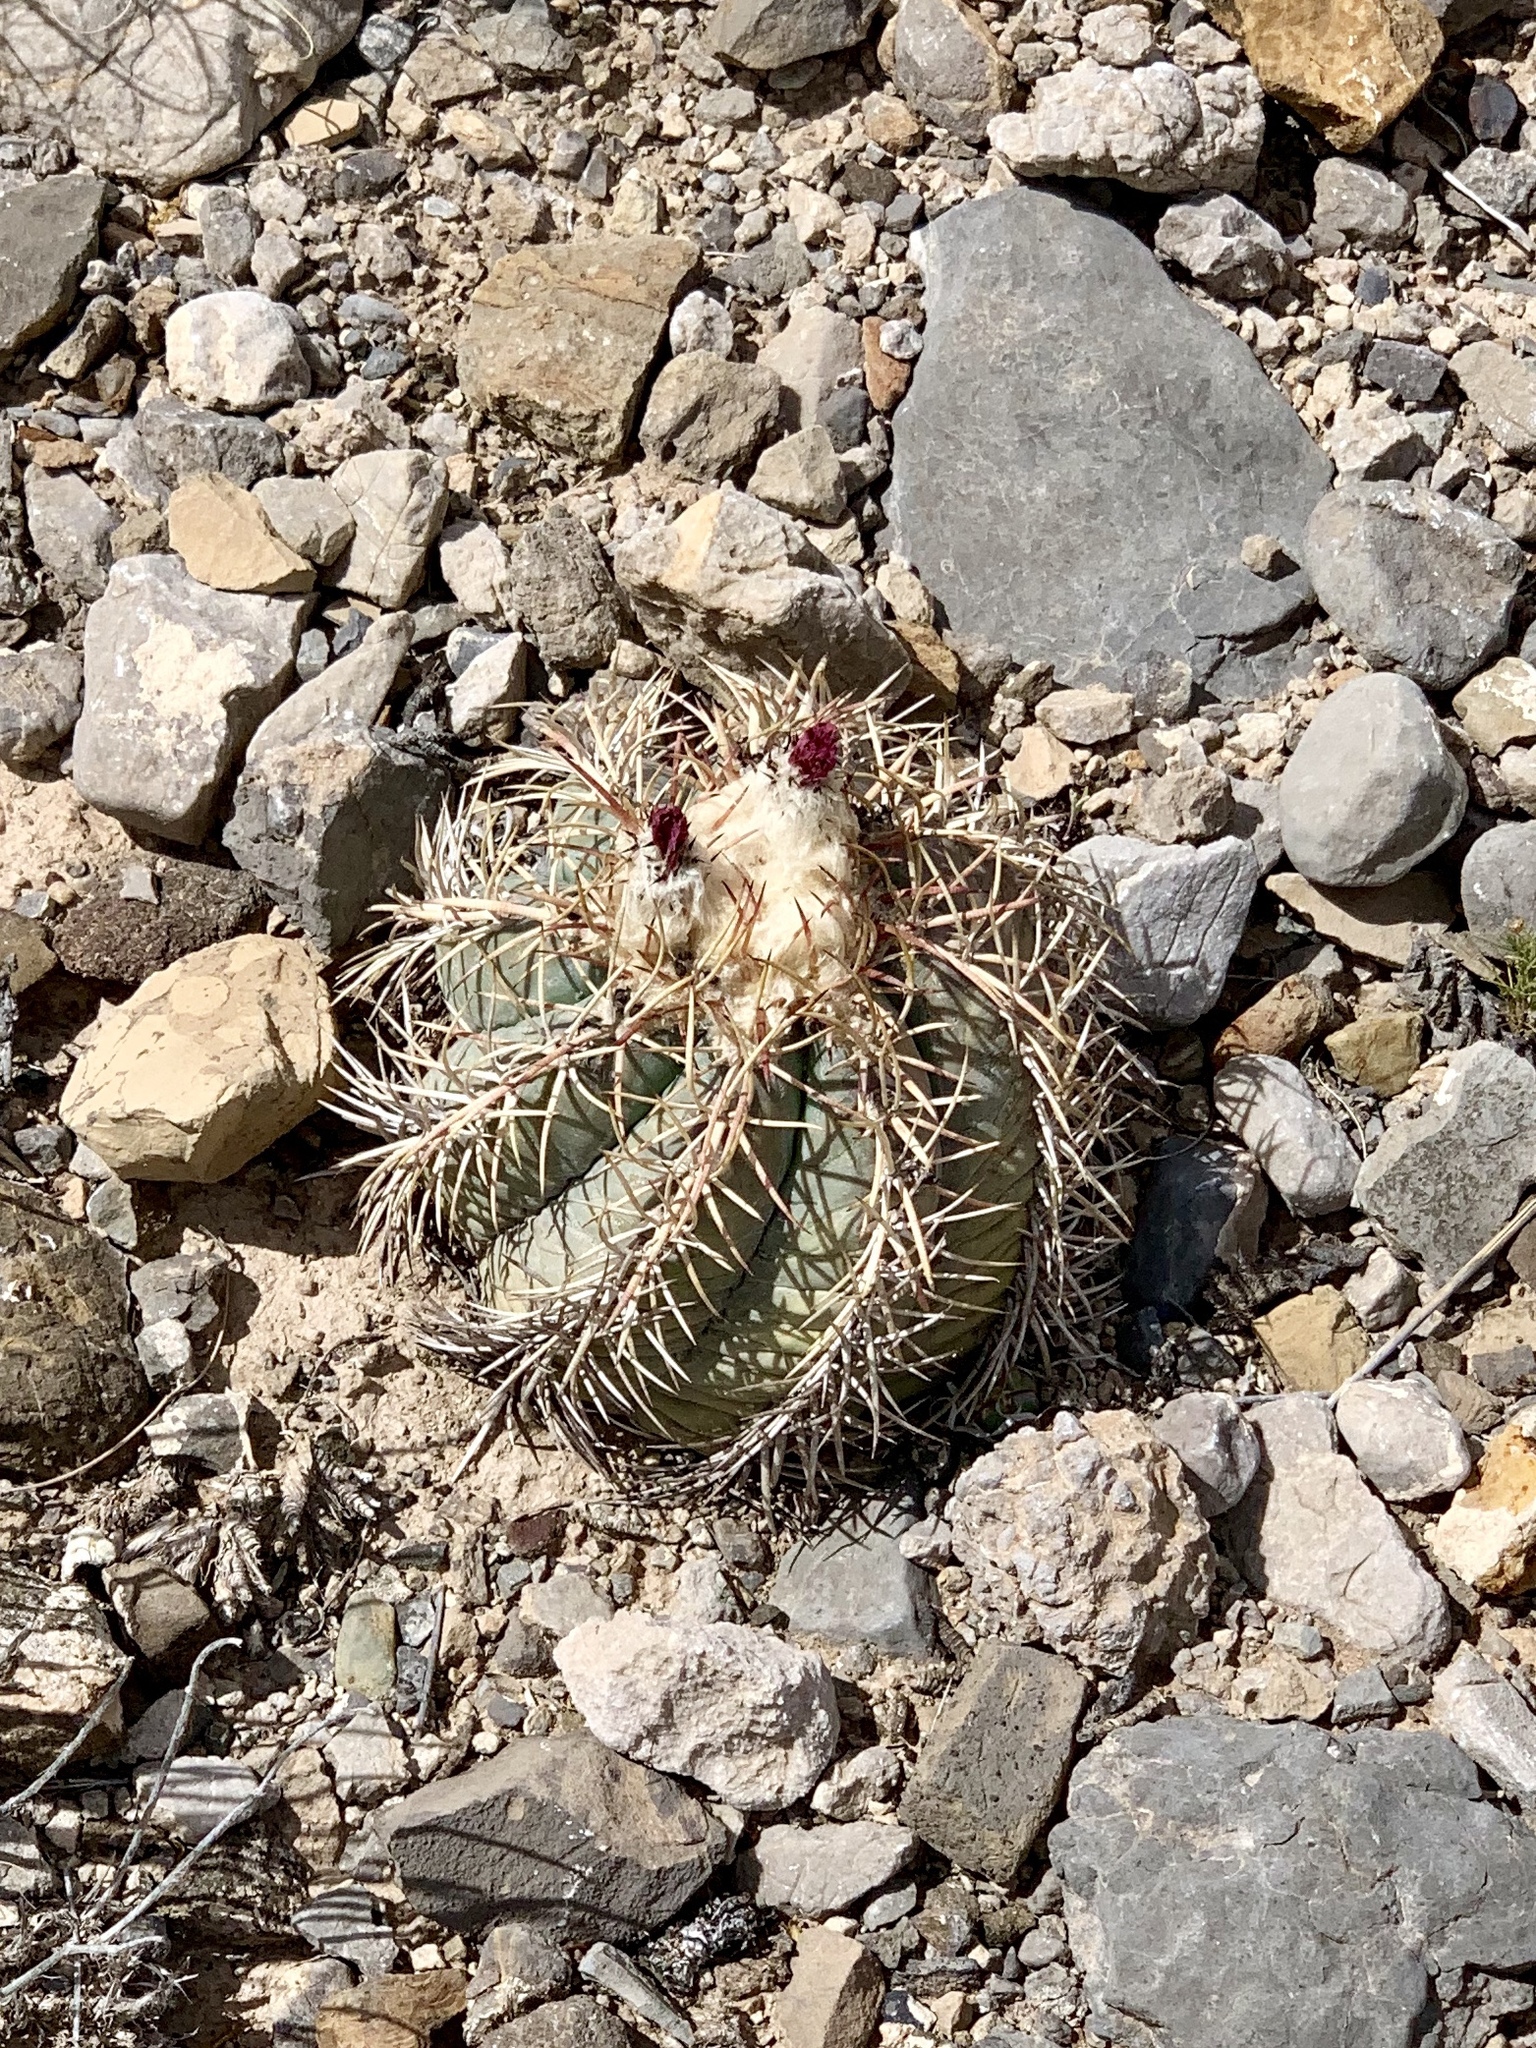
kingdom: Plantae
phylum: Tracheophyta
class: Magnoliopsida
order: Caryophyllales
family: Cactaceae
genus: Echinocactus
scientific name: Echinocactus horizonthalonius
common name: Devilshead
